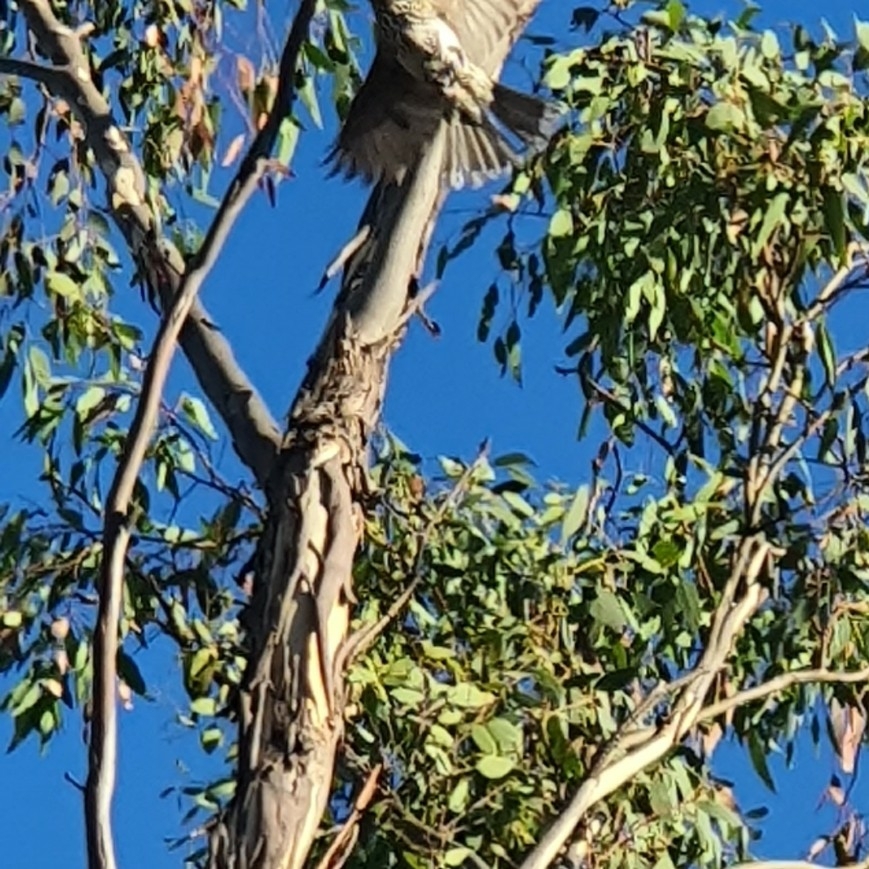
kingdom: Animalia
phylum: Chordata
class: Aves
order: Passeriformes
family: Oriolidae
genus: Oriolus
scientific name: Oriolus sagittatus
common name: Olive-backed oriole
